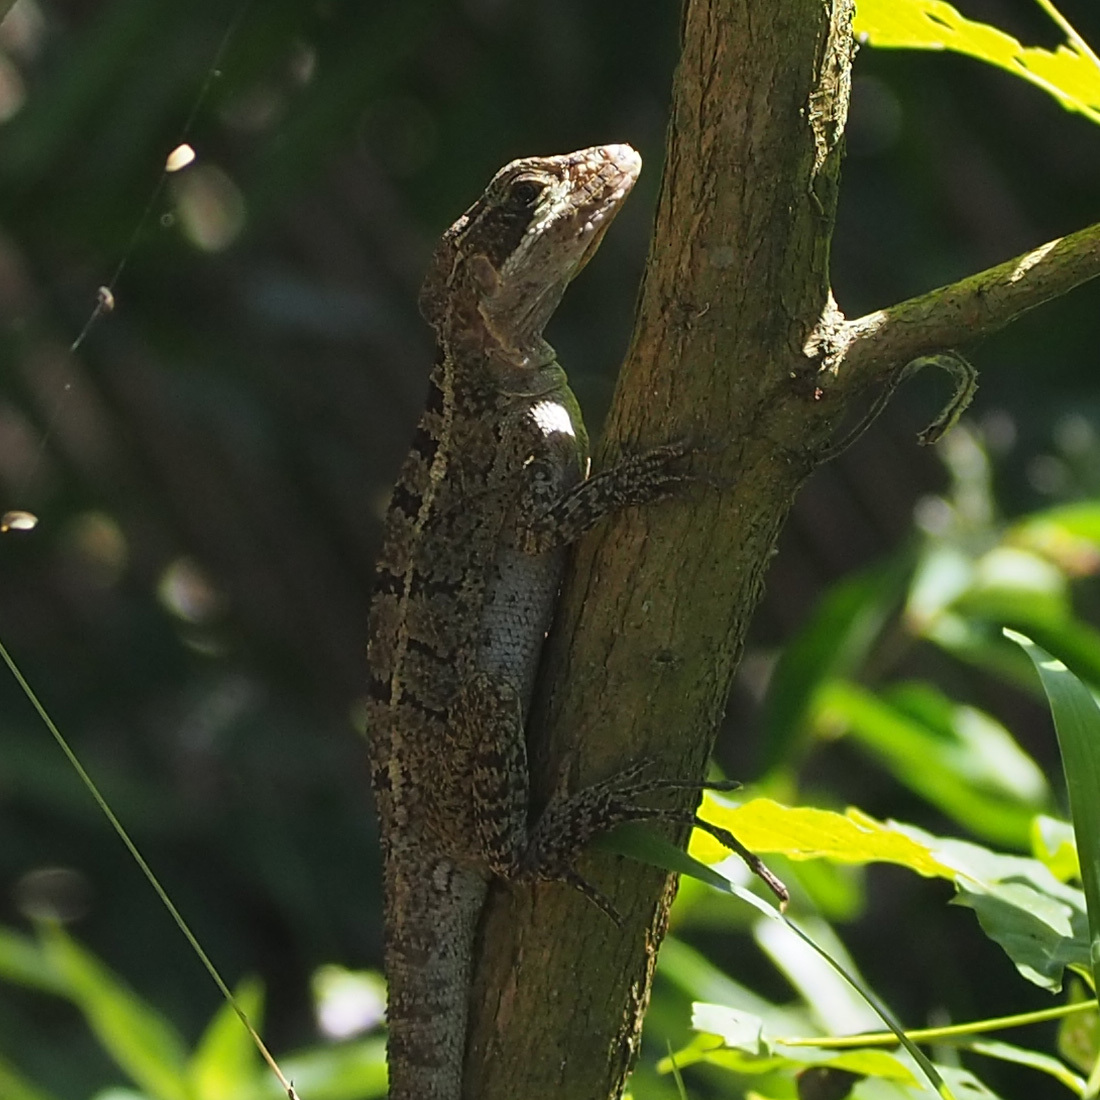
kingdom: Animalia
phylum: Chordata
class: Squamata
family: Corytophanidae
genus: Basiliscus
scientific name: Basiliscus vittatus
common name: Brown basilisk
